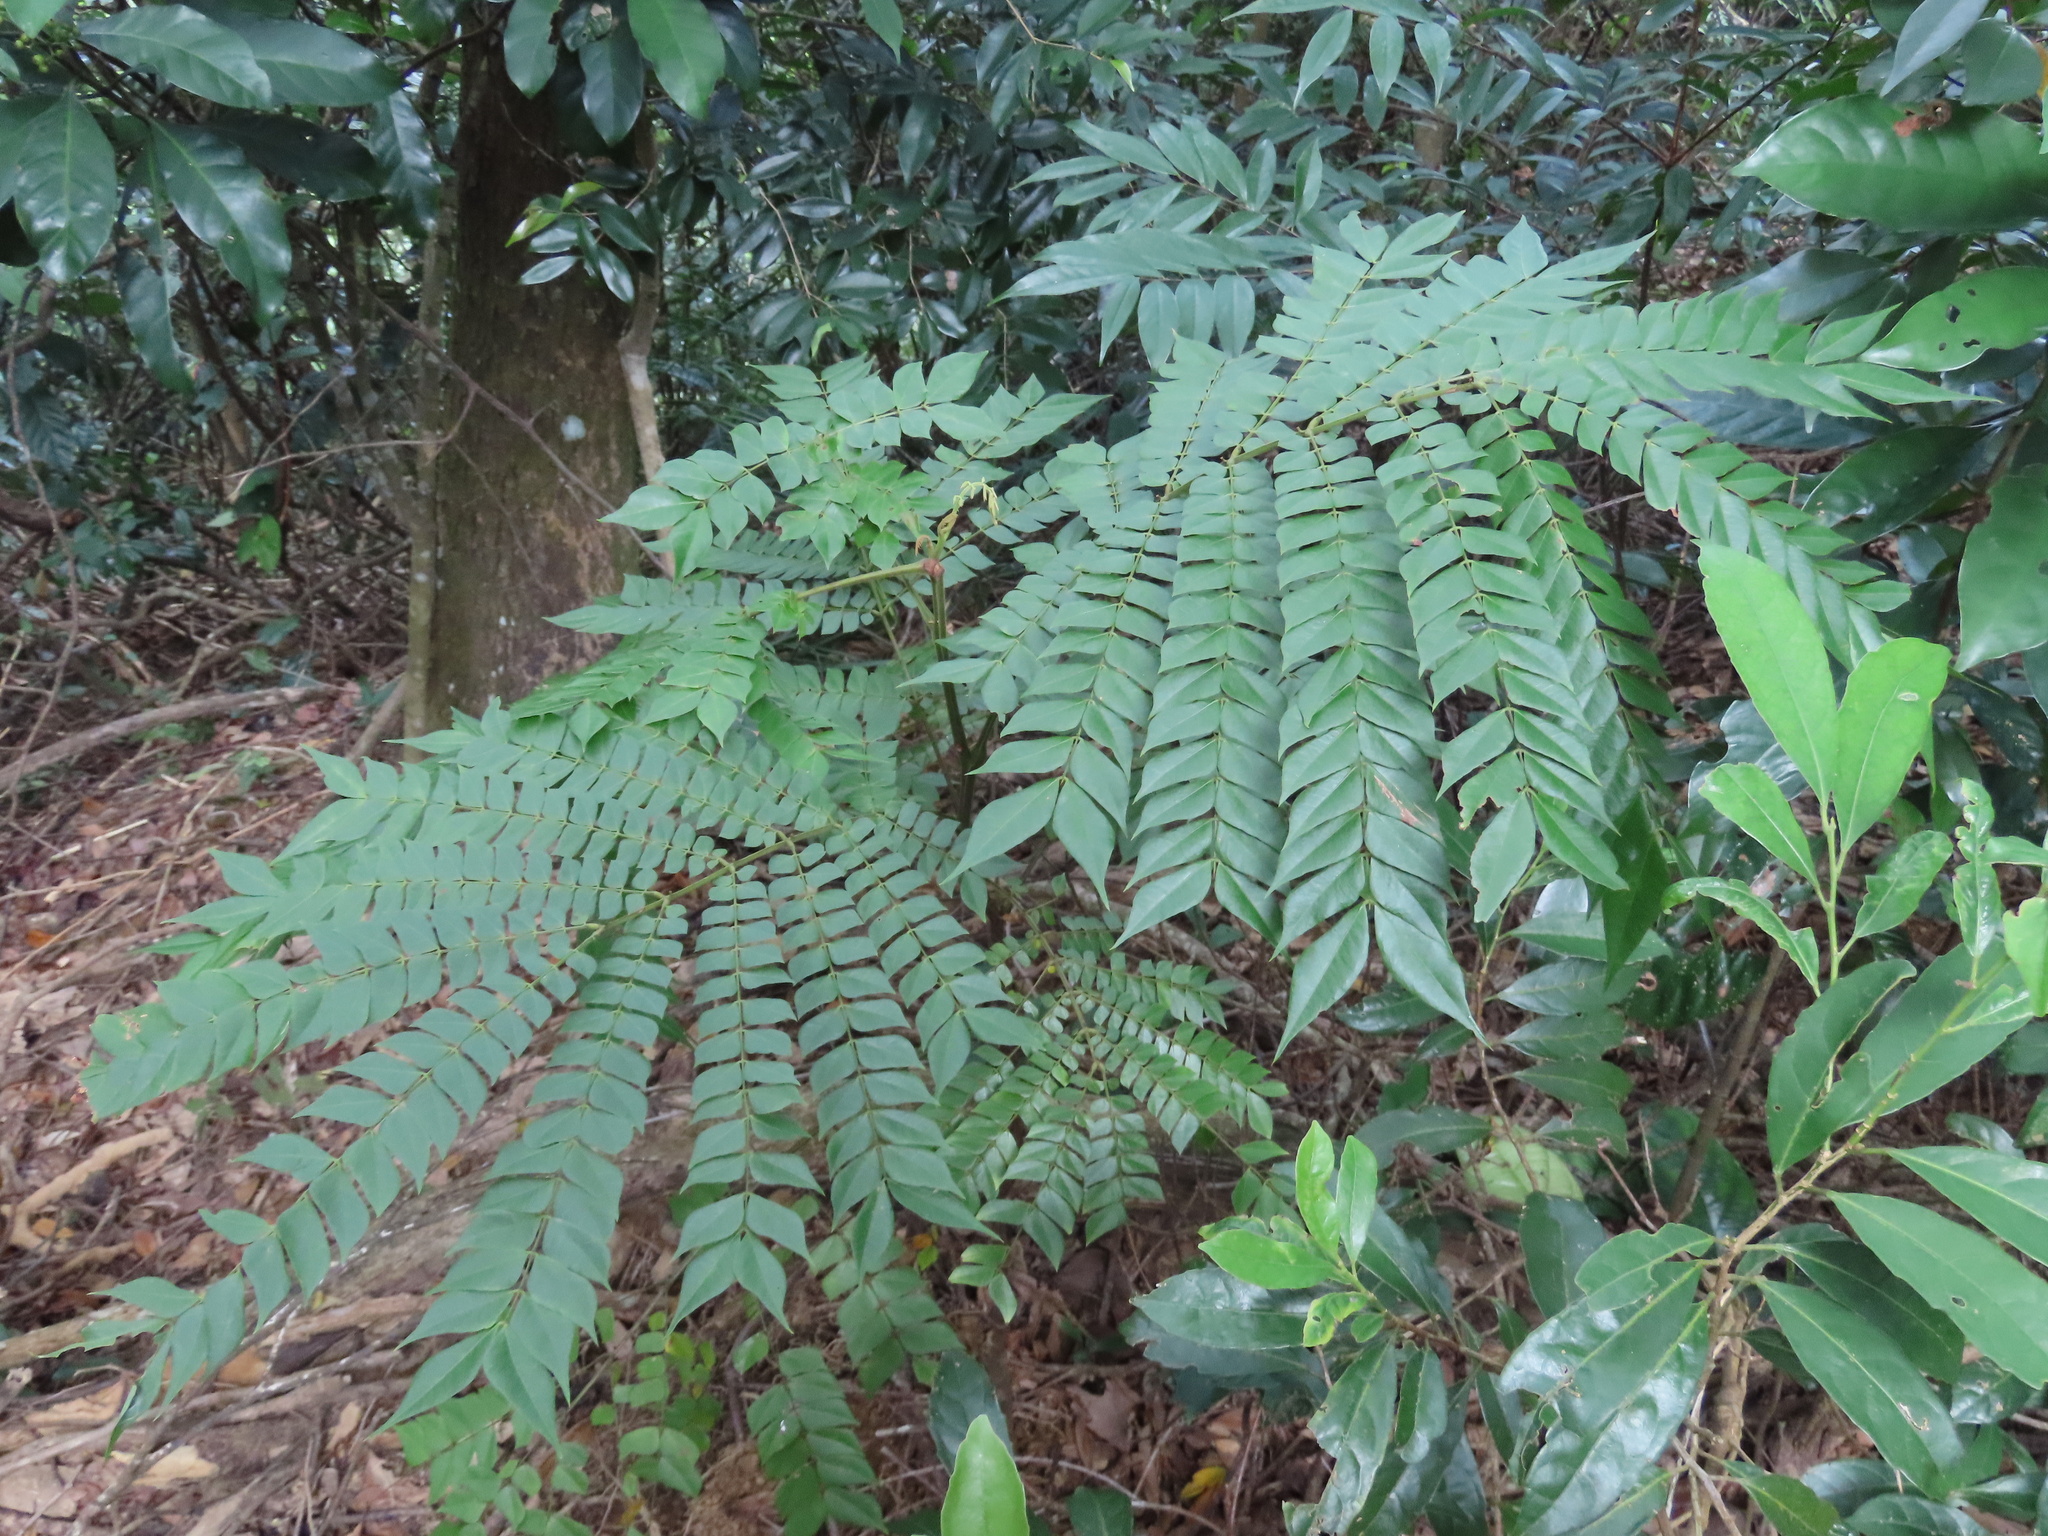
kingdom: Plantae
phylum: Tracheophyta
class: Magnoliopsida
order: Fabales
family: Fabaceae
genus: Archidendron
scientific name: Archidendron clypearia
